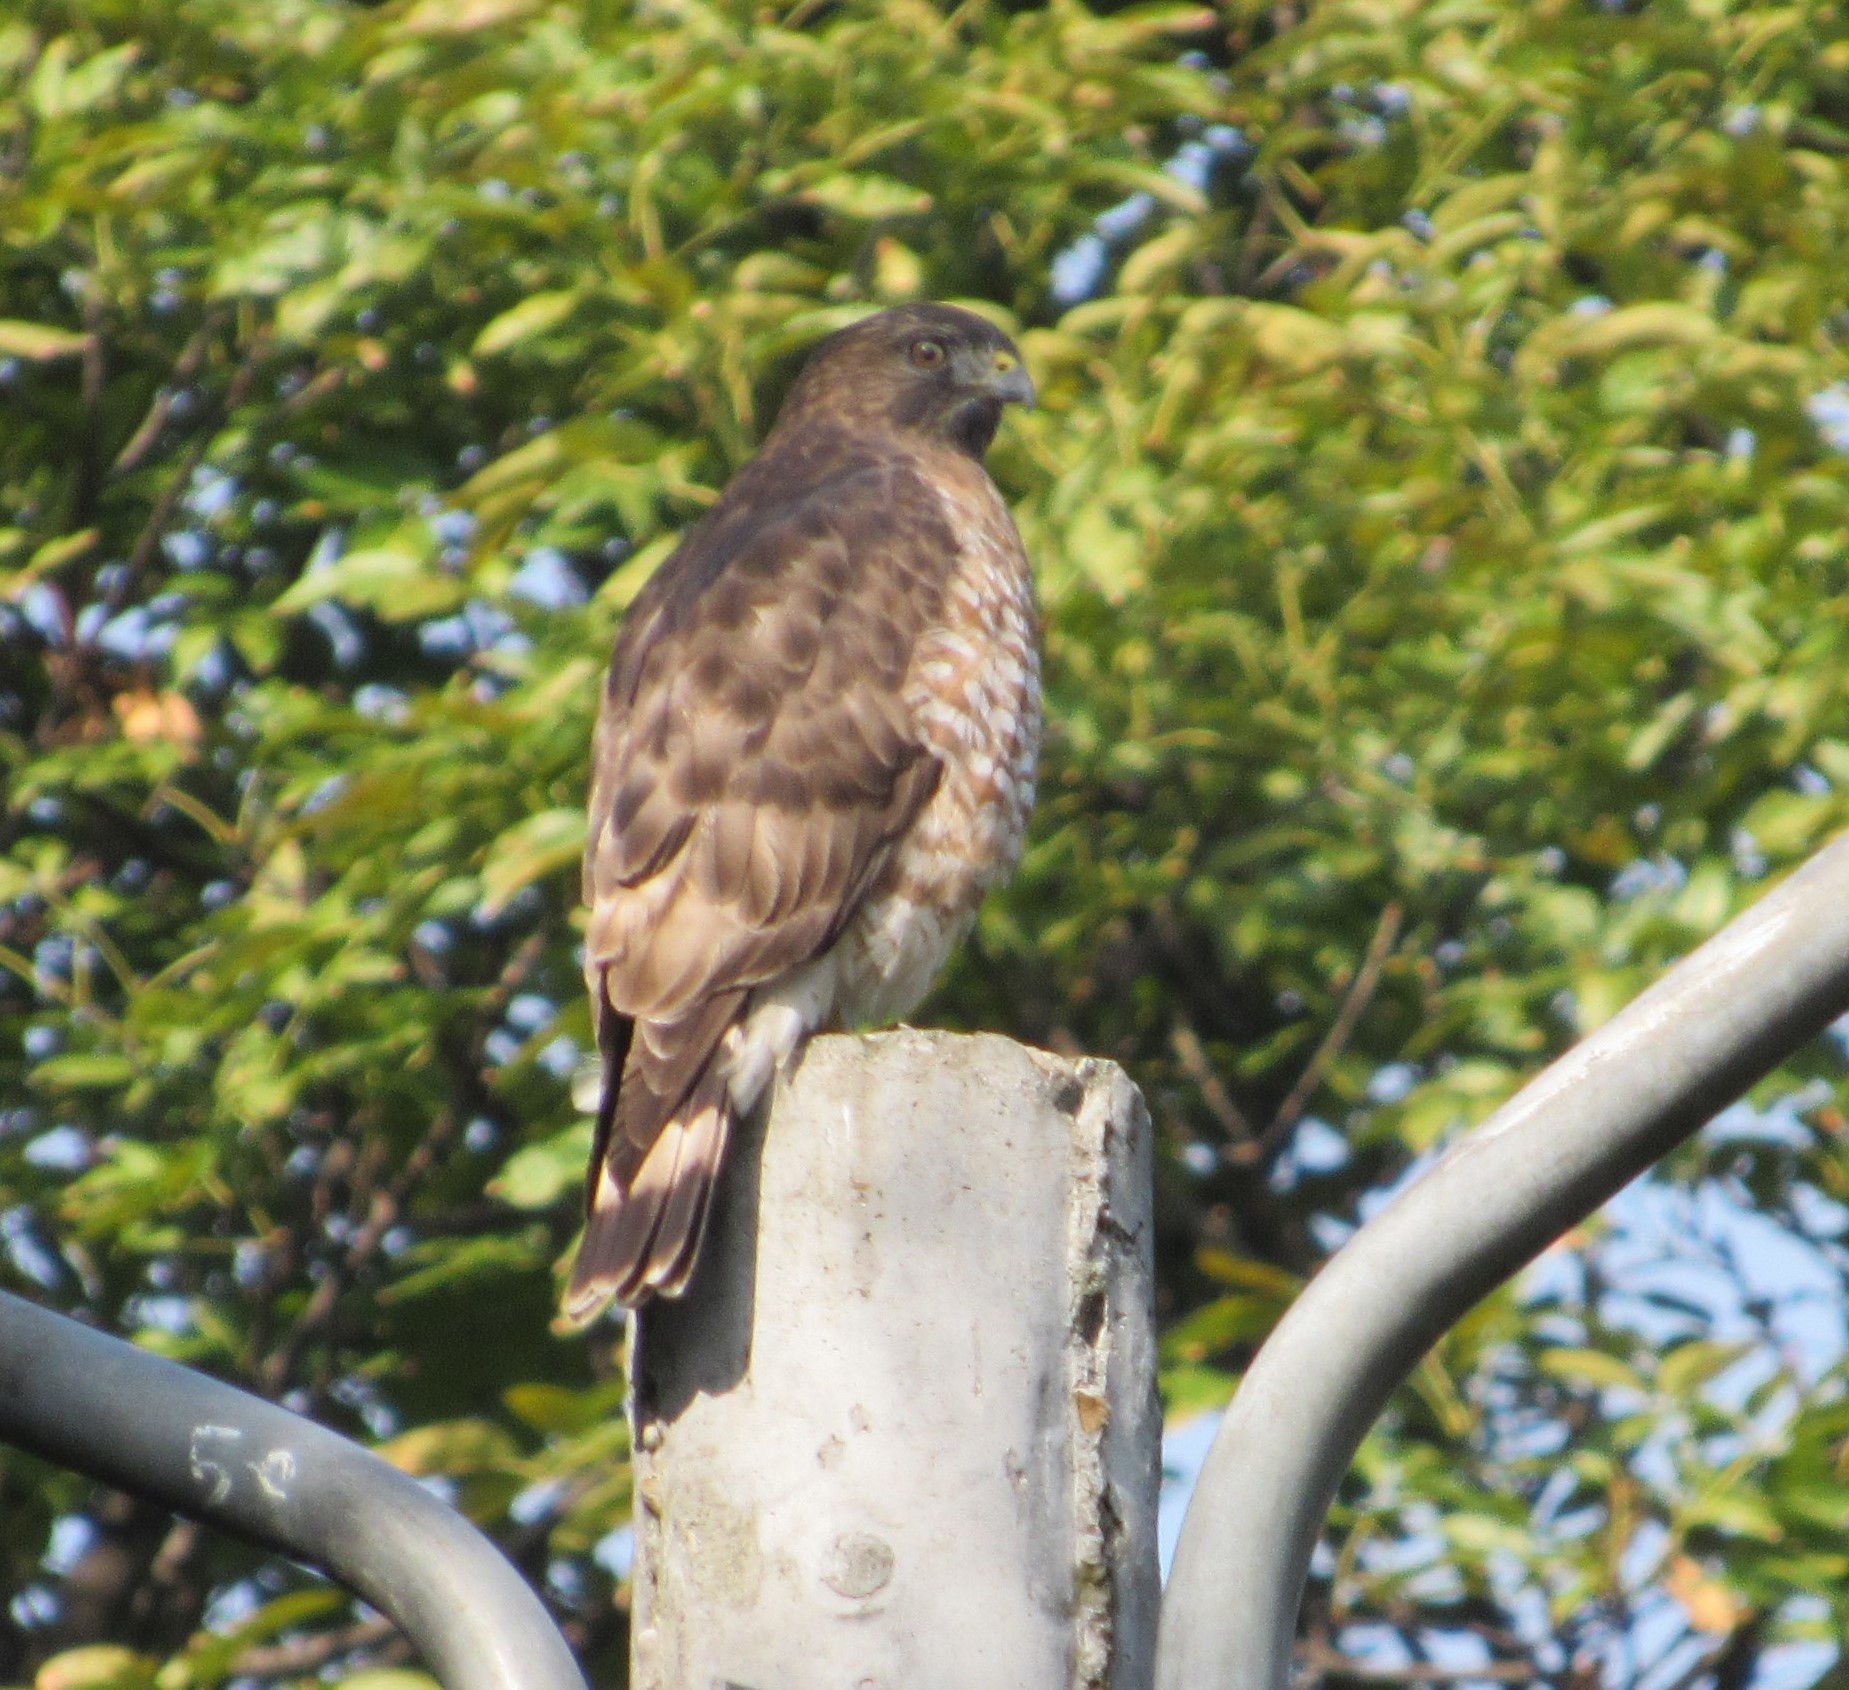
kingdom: Animalia
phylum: Chordata
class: Aves
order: Accipitriformes
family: Accipitridae
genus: Buteo
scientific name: Buteo platypterus
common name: Broad-winged hawk
